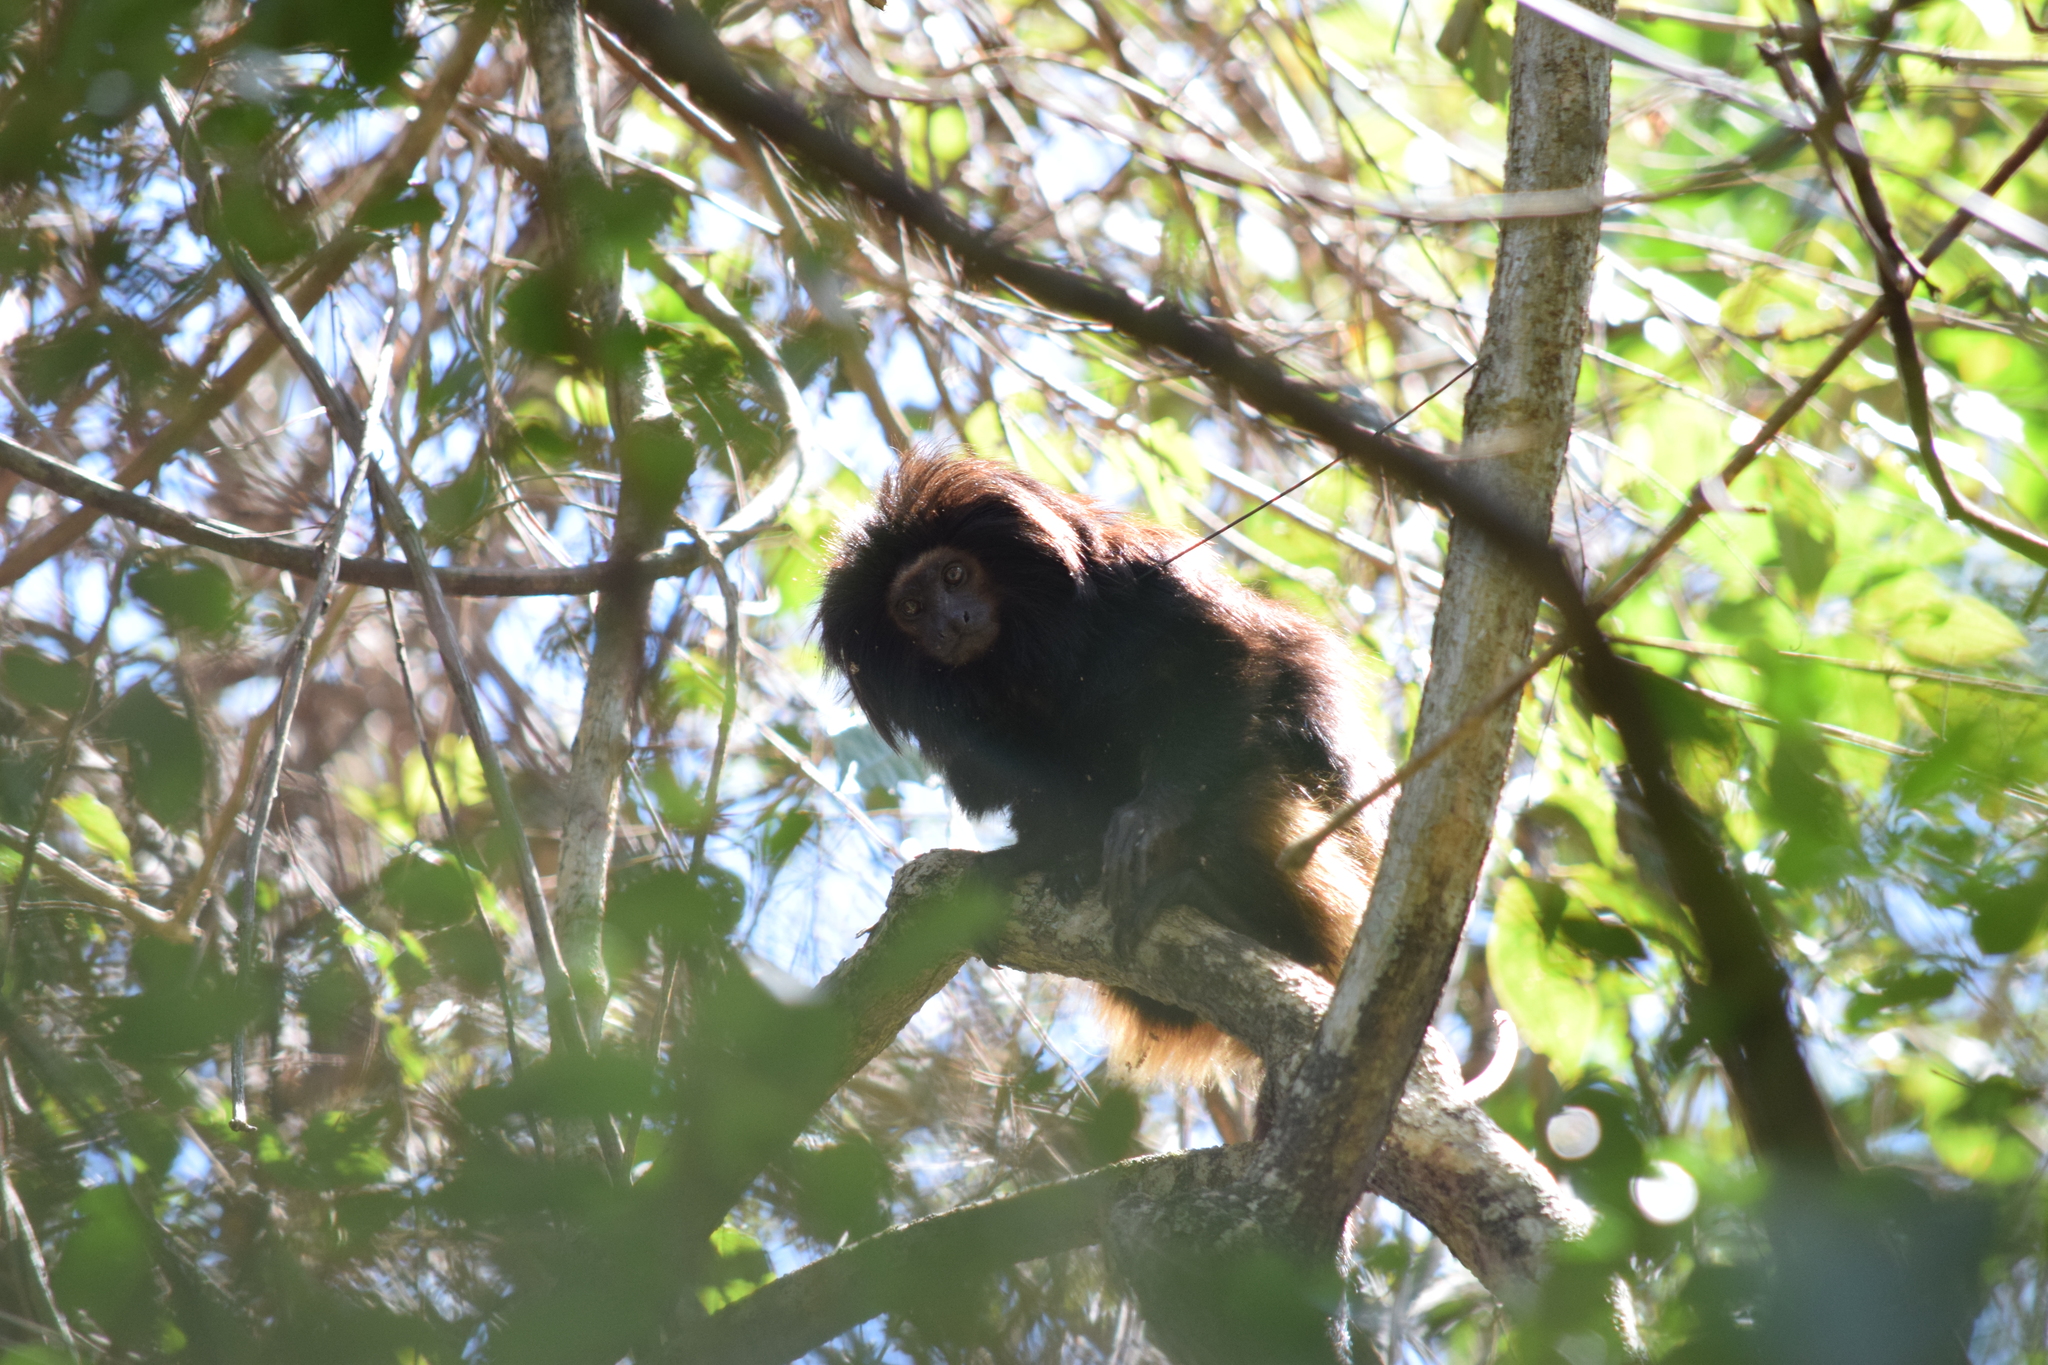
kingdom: Animalia
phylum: Chordata
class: Mammalia
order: Primates
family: Callitrichidae
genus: Leontopithecus
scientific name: Leontopithecus chrysopygus
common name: Black lion tamarin
